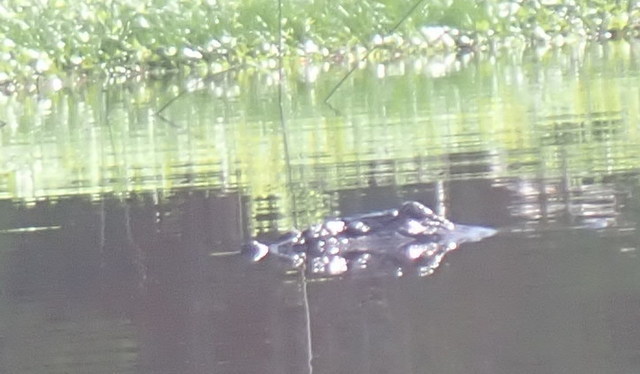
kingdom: Animalia
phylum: Chordata
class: Crocodylia
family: Alligatoridae
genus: Alligator
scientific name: Alligator mississippiensis
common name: American alligator
